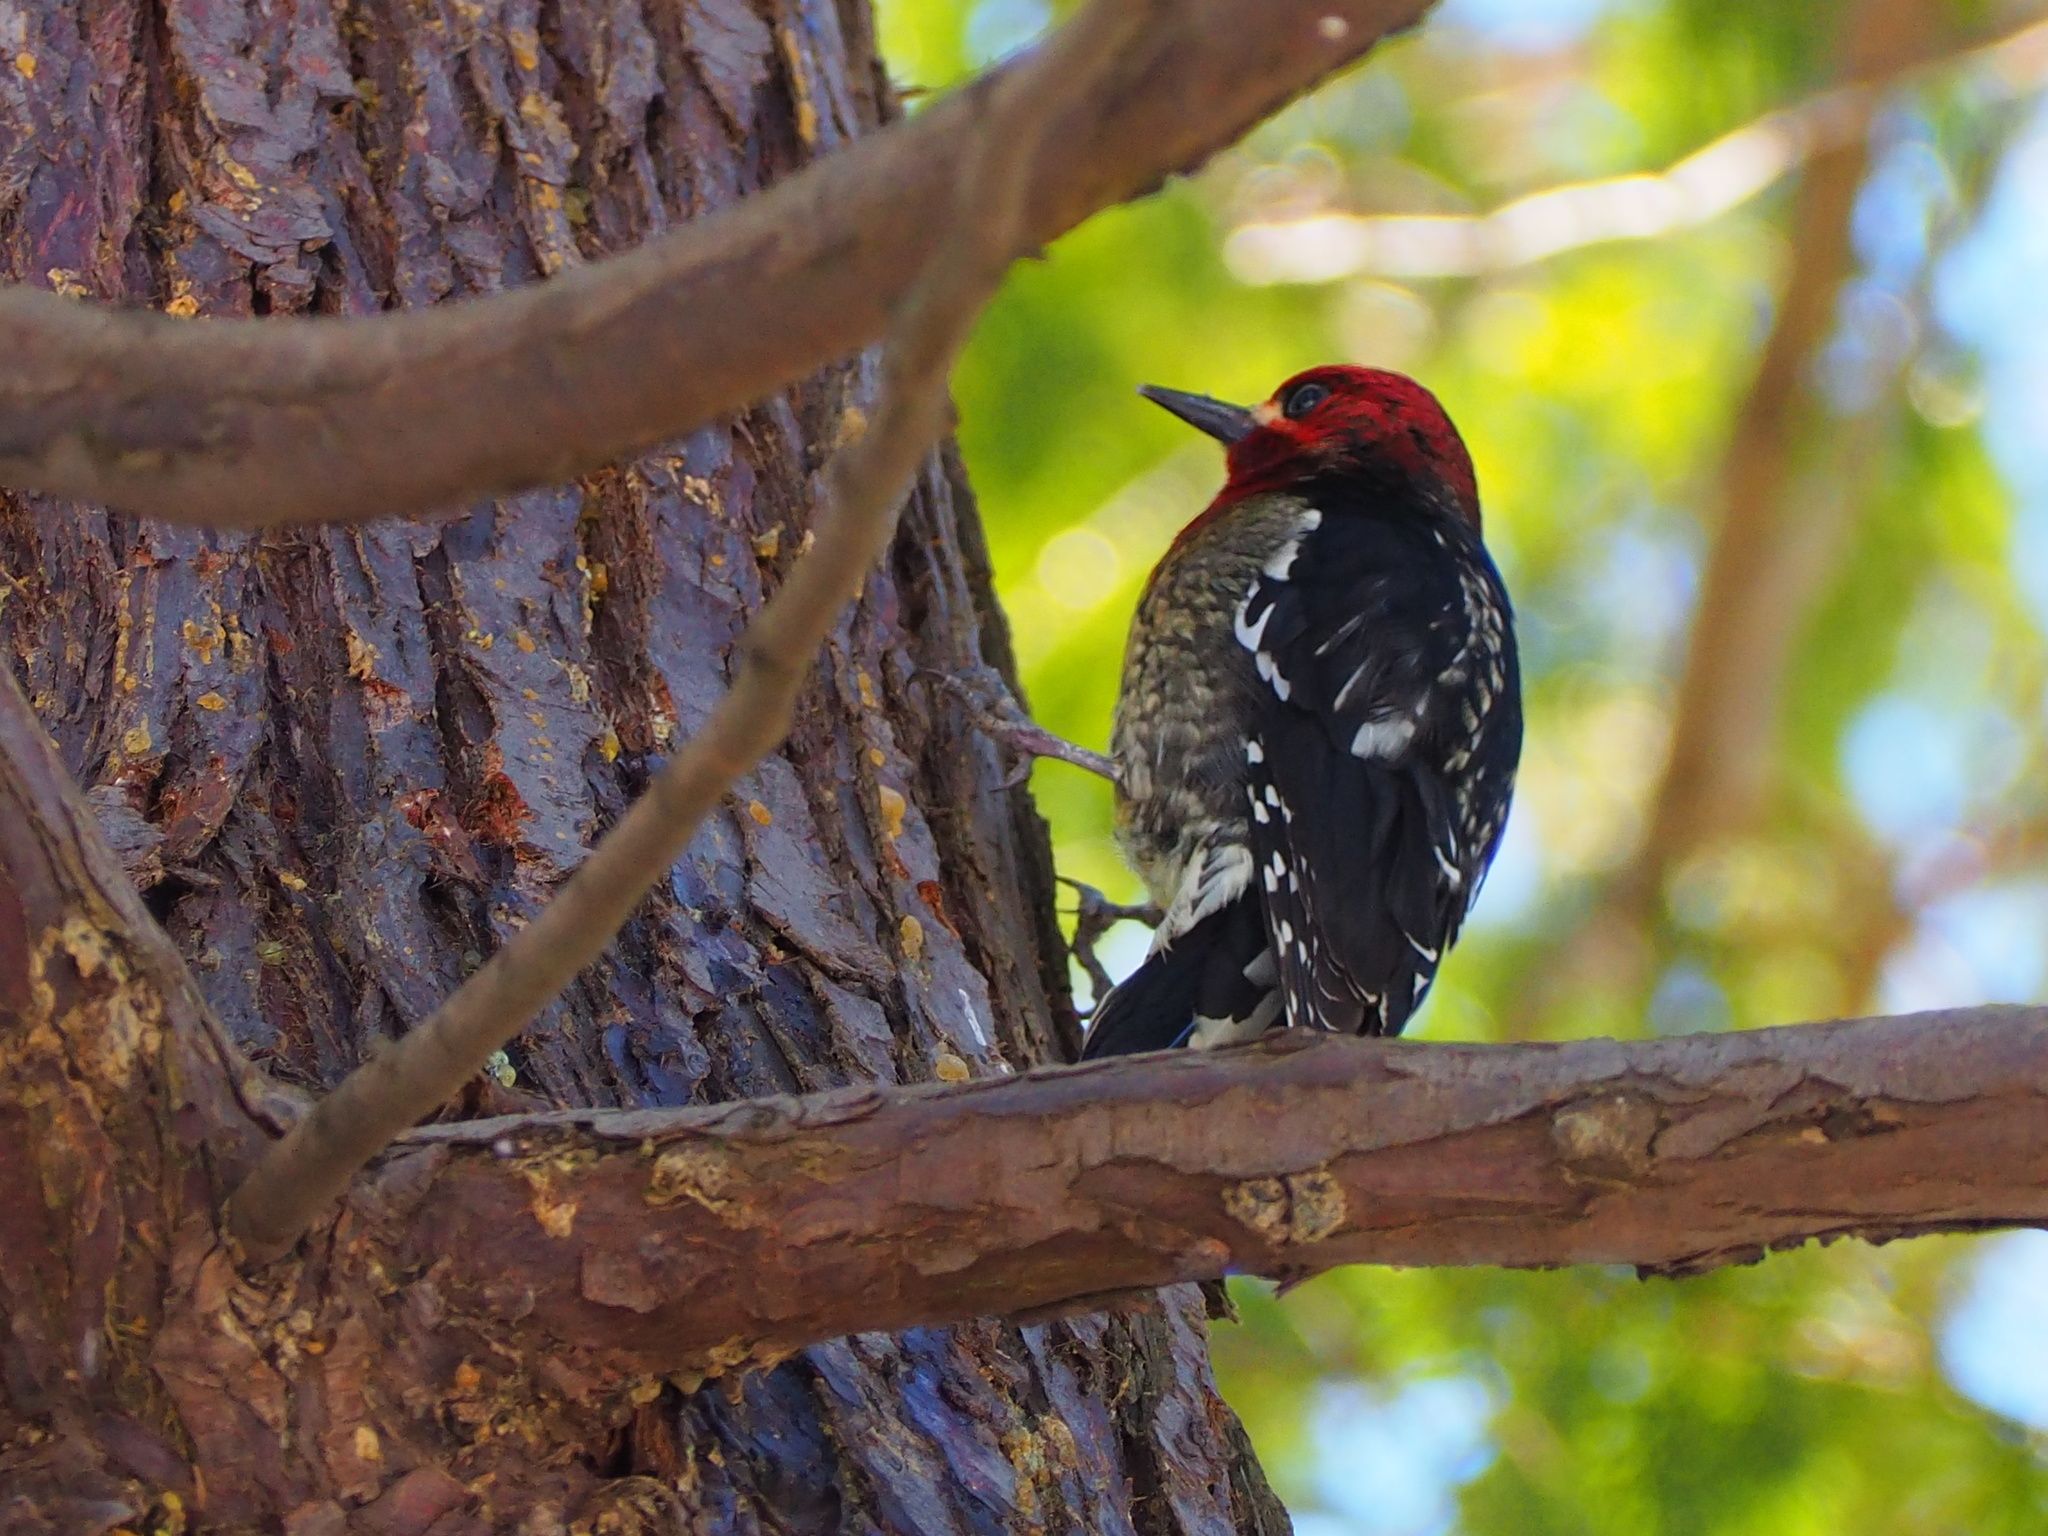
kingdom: Animalia
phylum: Chordata
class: Aves
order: Piciformes
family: Picidae
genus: Sphyrapicus
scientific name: Sphyrapicus ruber
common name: Red-breasted sapsucker
